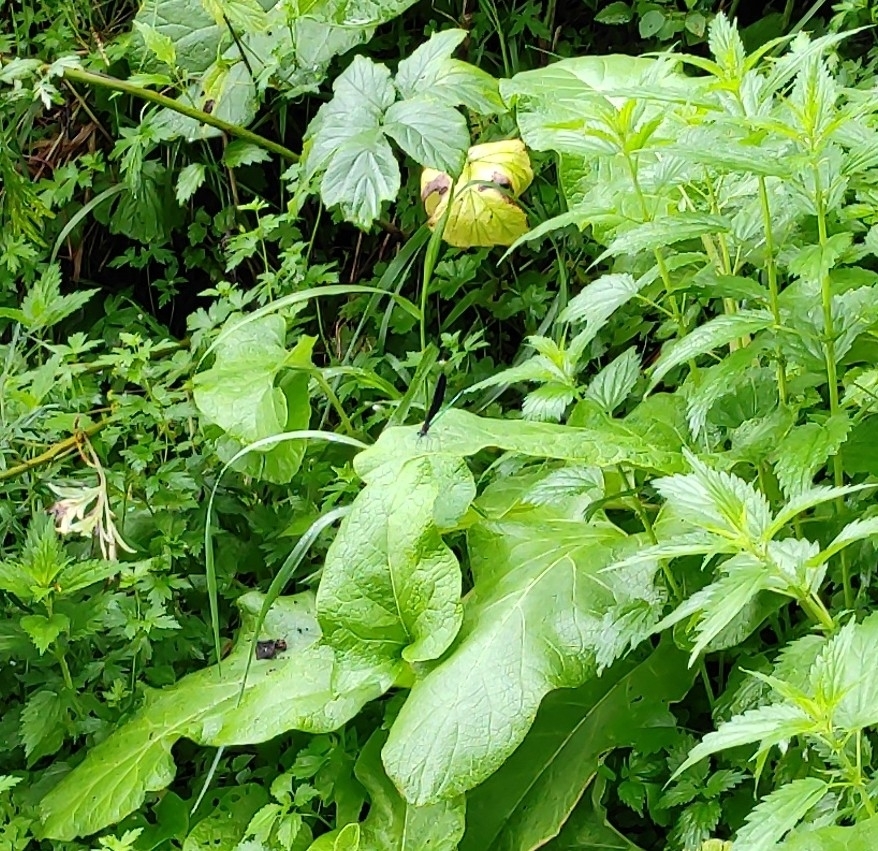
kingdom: Animalia
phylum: Arthropoda
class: Insecta
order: Odonata
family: Calopterygidae
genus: Atrocalopteryx
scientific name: Atrocalopteryx atrata
